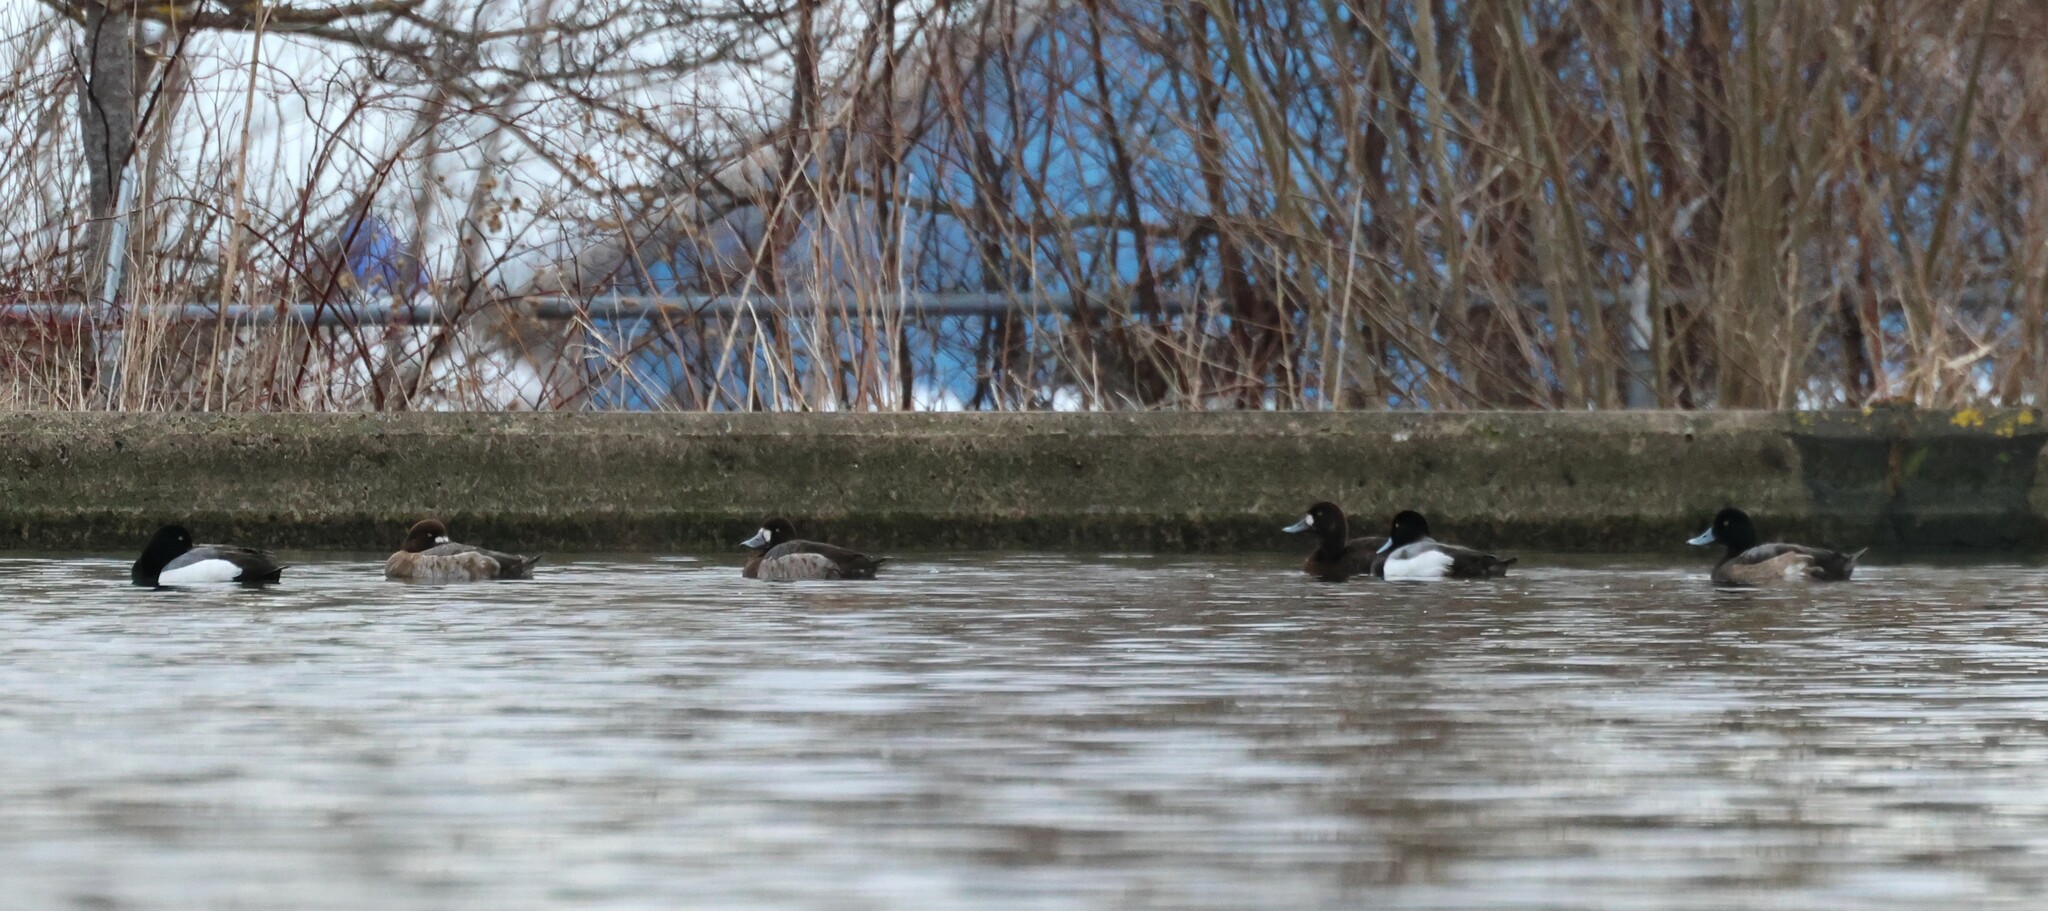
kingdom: Animalia
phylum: Chordata
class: Aves
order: Anseriformes
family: Anatidae
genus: Aythya
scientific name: Aythya marila
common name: Greater scaup
